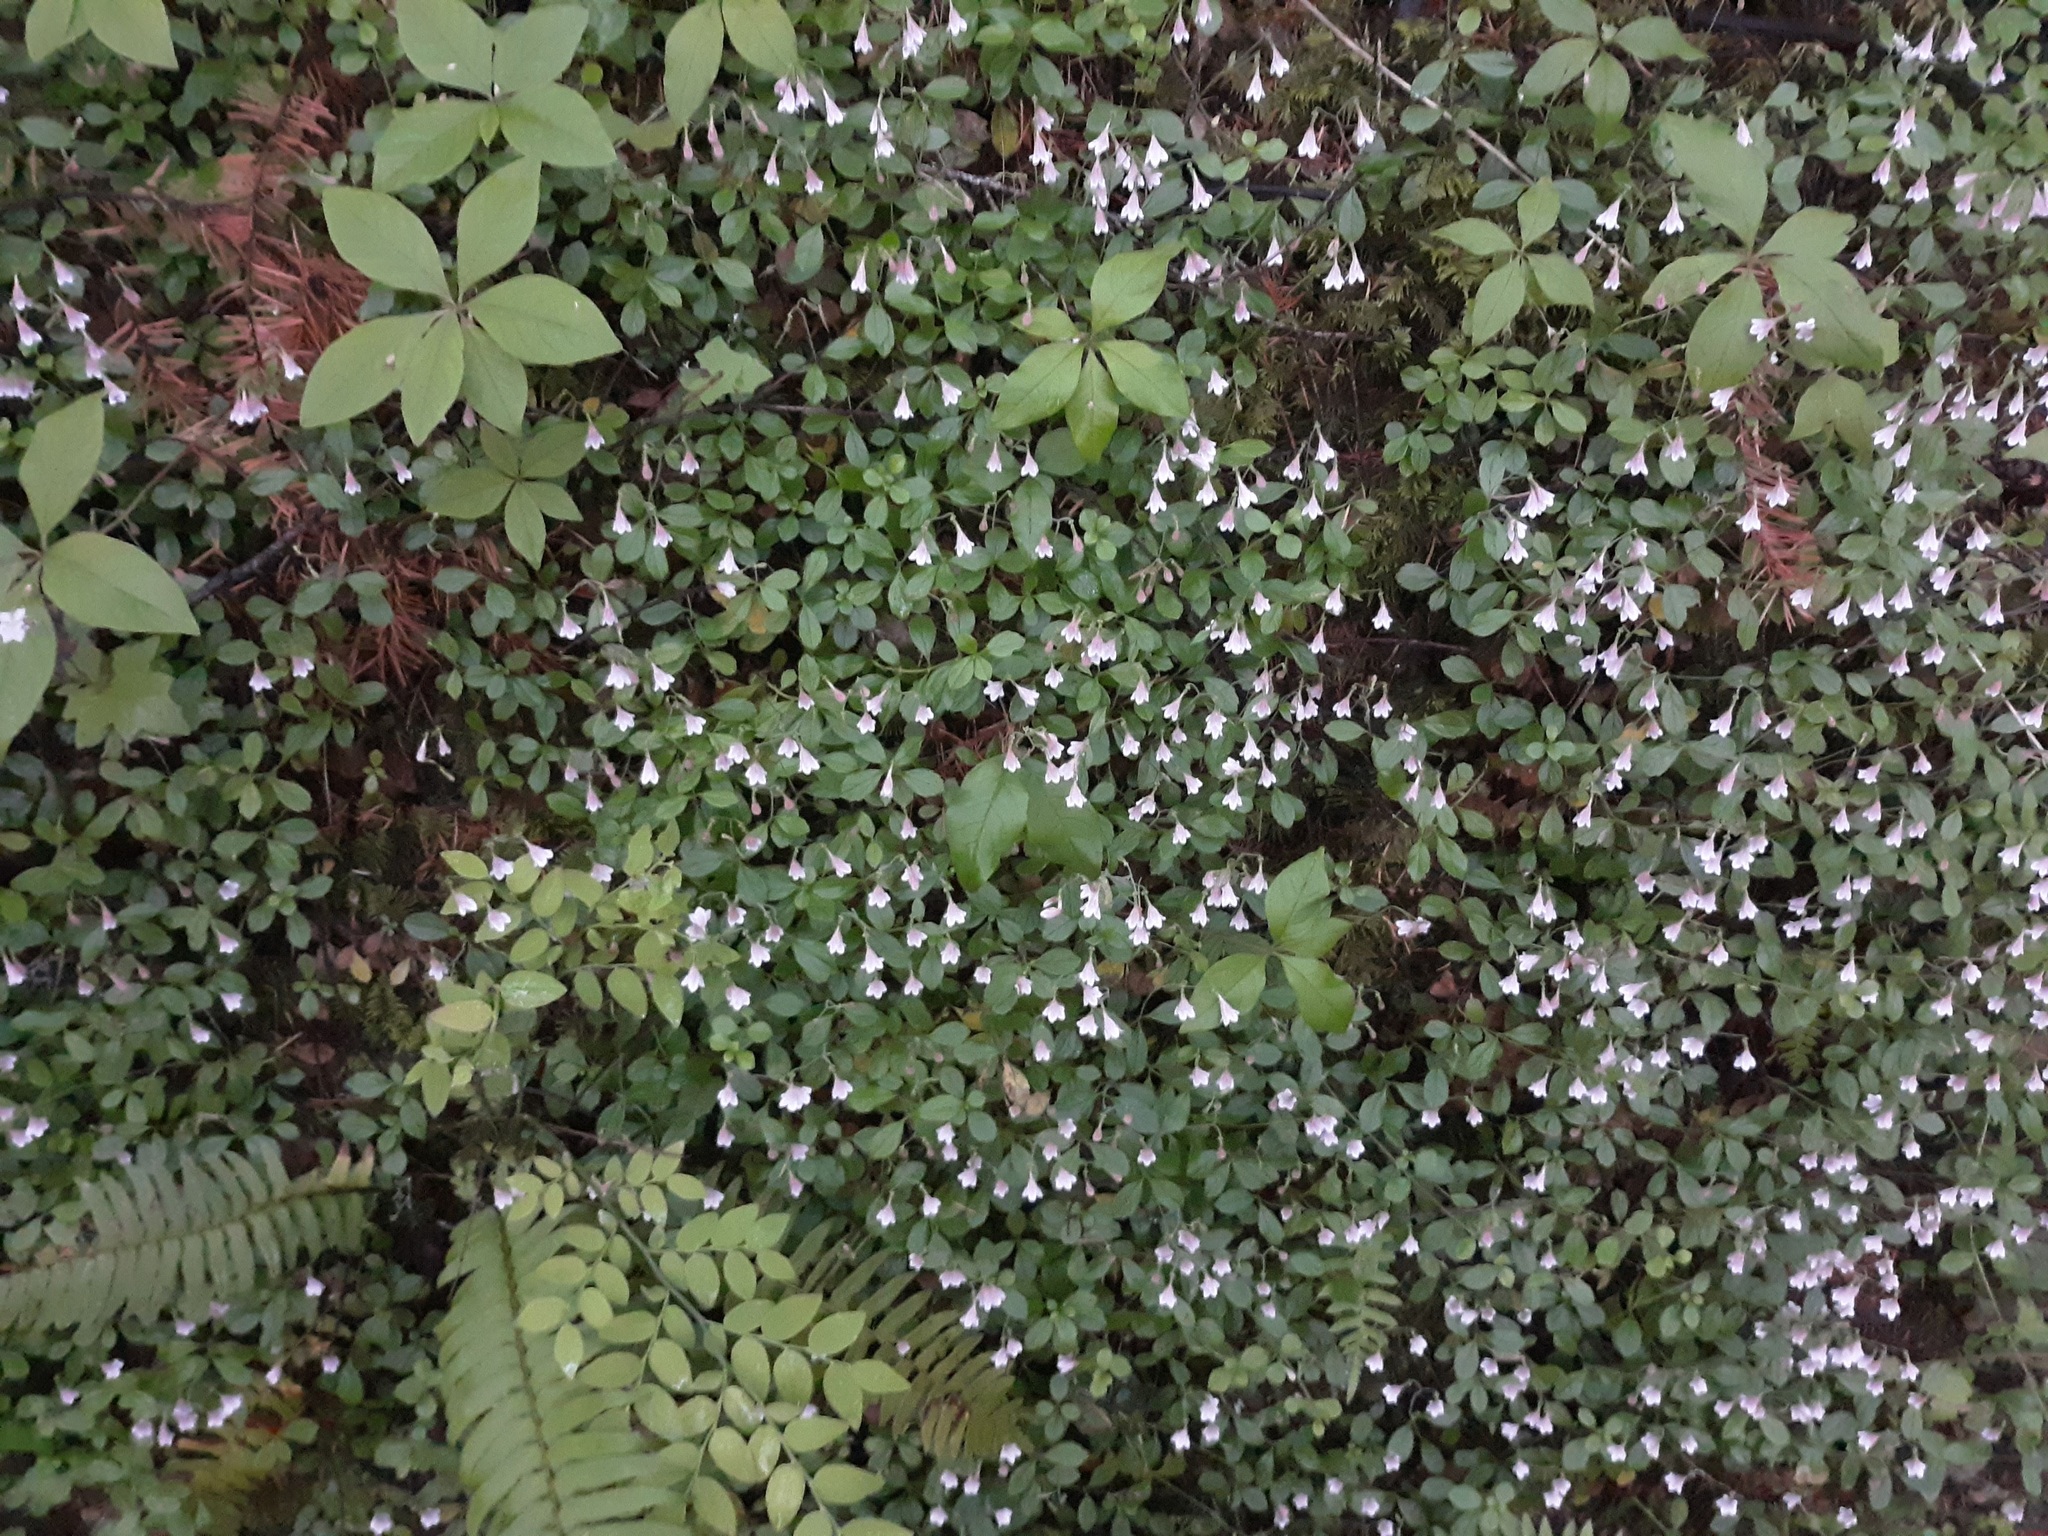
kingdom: Plantae
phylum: Tracheophyta
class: Magnoliopsida
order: Dipsacales
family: Caprifoliaceae
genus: Linnaea
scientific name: Linnaea borealis
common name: Twinflower
